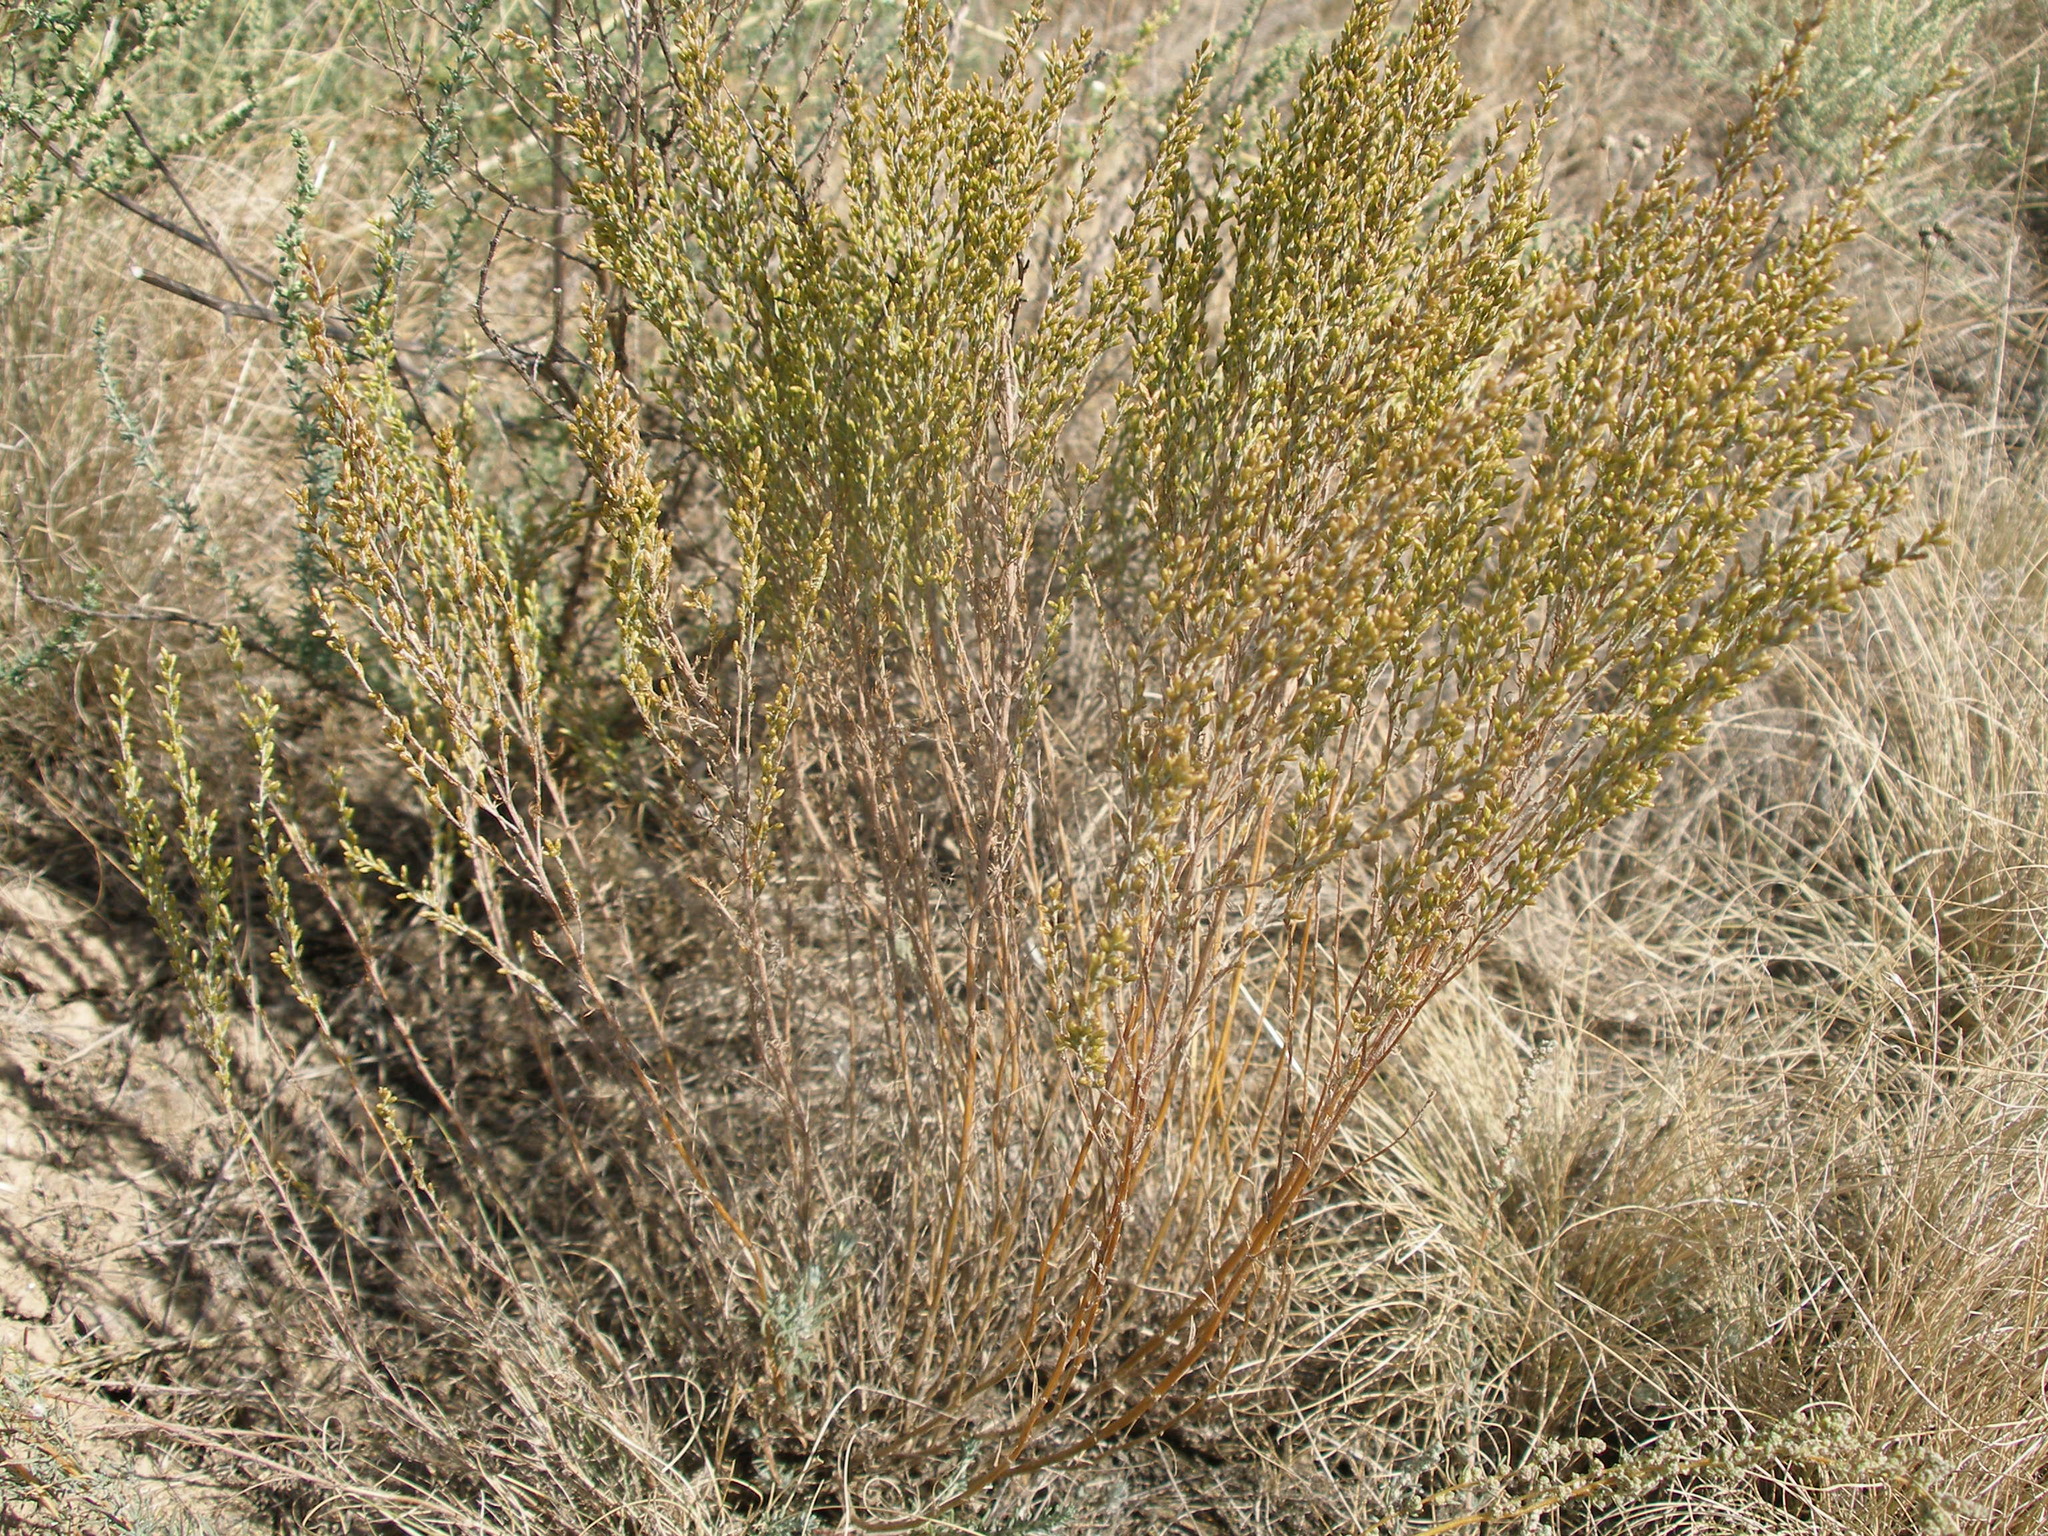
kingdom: Plantae
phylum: Tracheophyta
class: Magnoliopsida
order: Asterales
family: Asteraceae
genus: Artemisia
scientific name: Artemisia pauciflora
